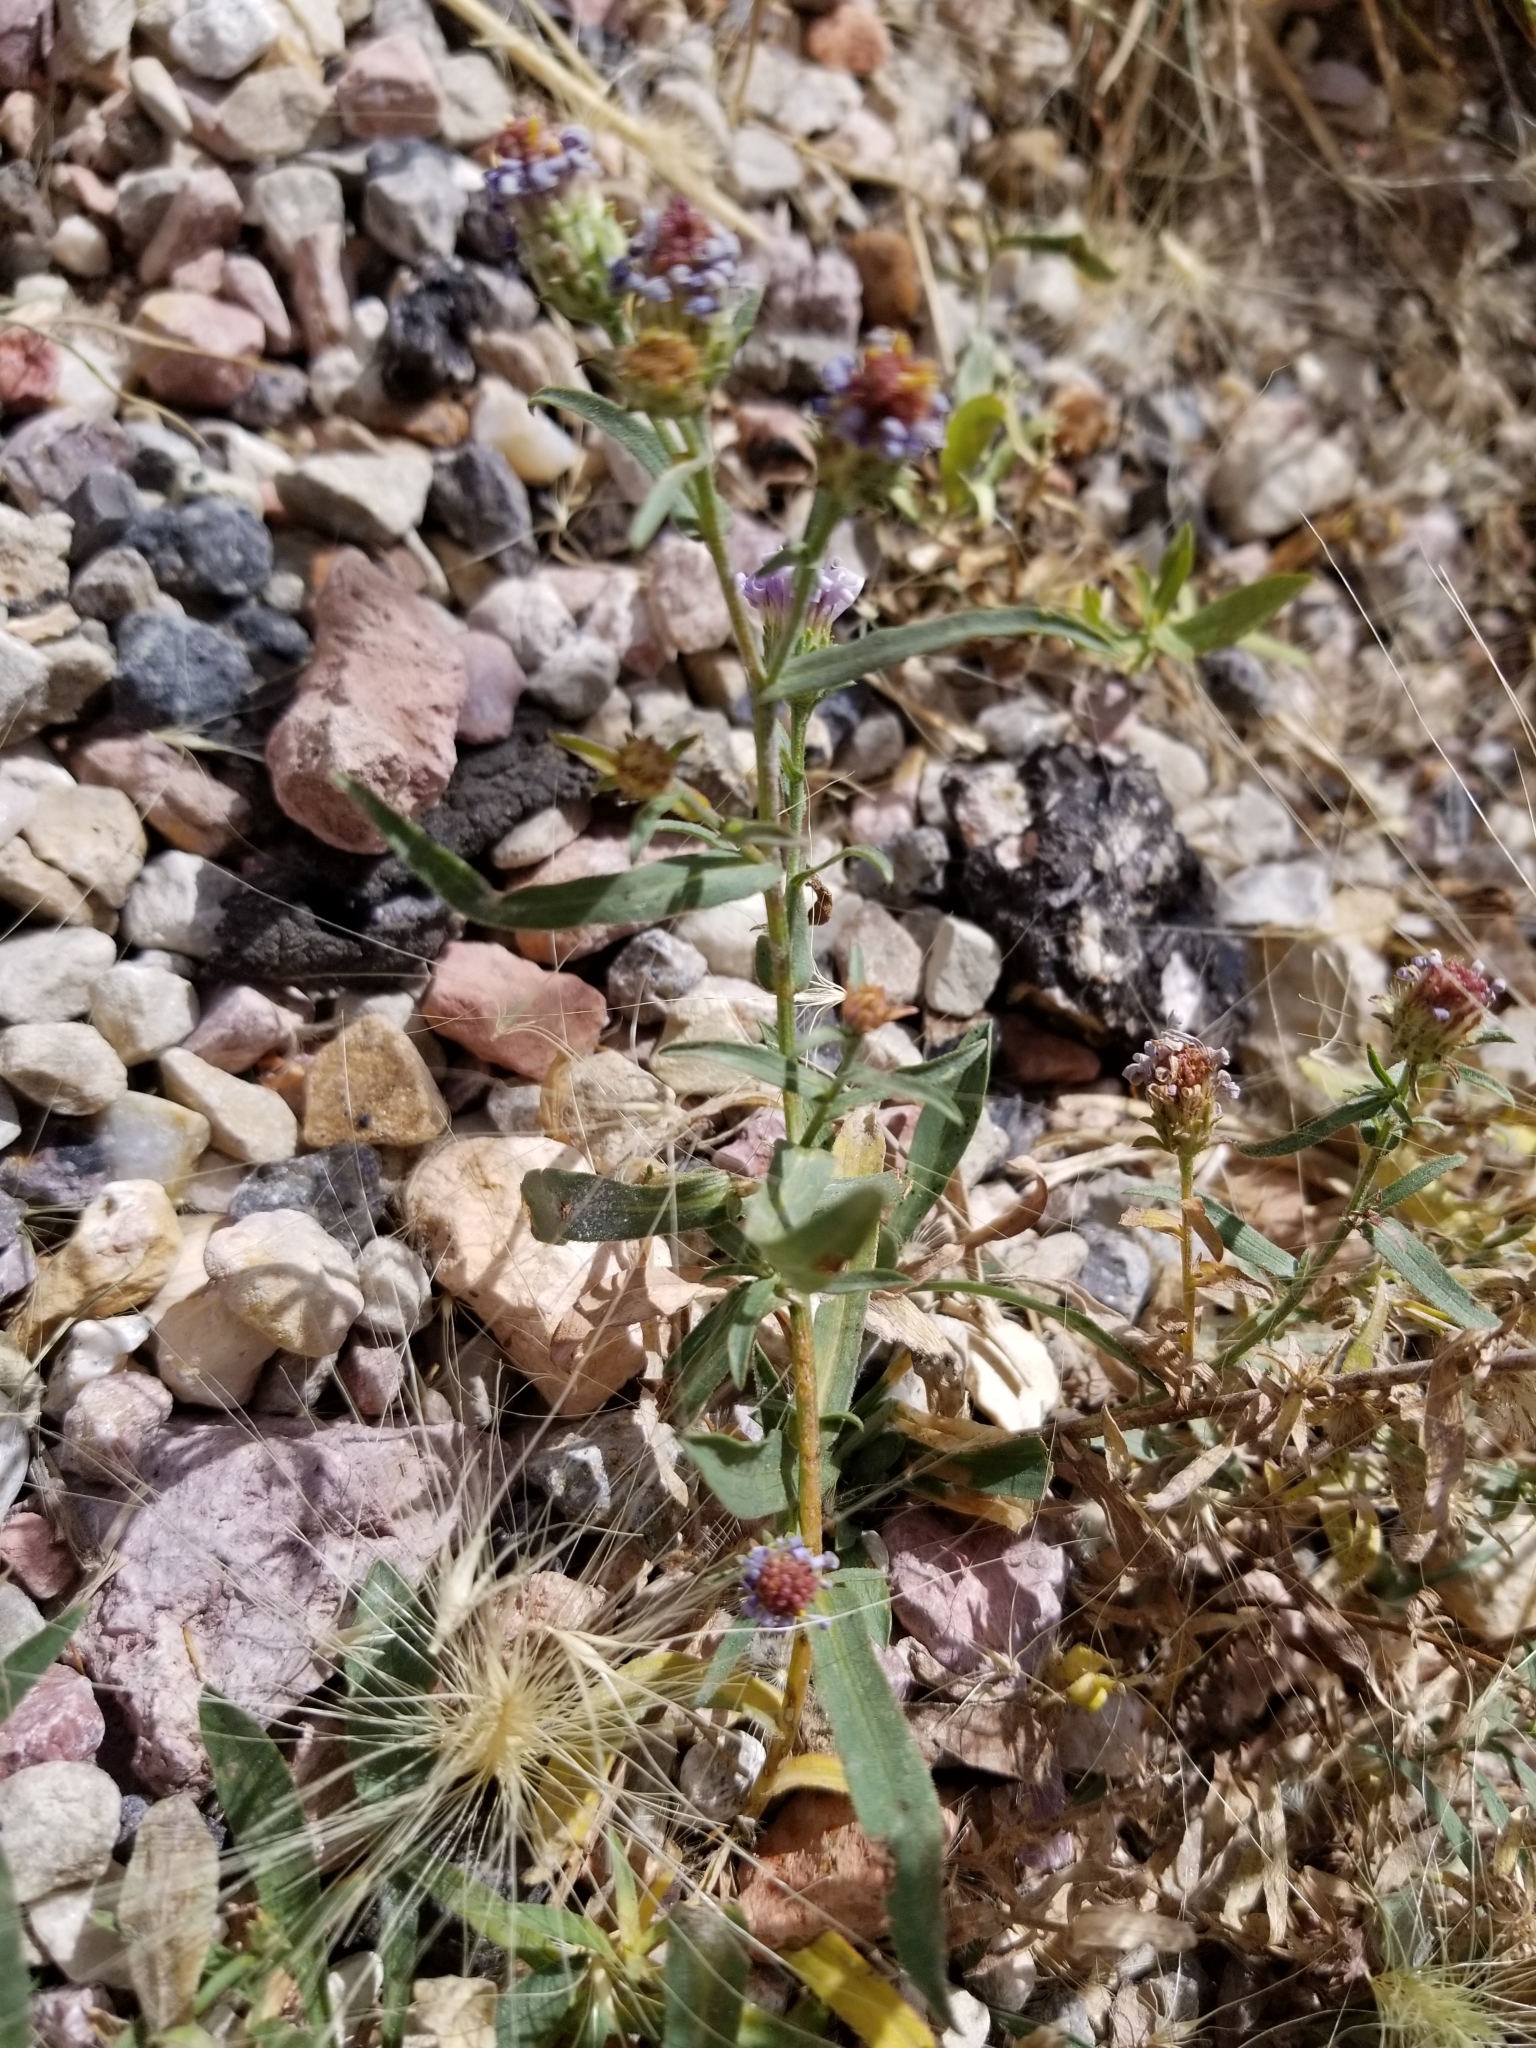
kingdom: Plantae
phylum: Tracheophyta
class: Magnoliopsida
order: Asterales
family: Asteraceae
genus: Dieteria
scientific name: Dieteria canescens
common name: Hoary-aster
